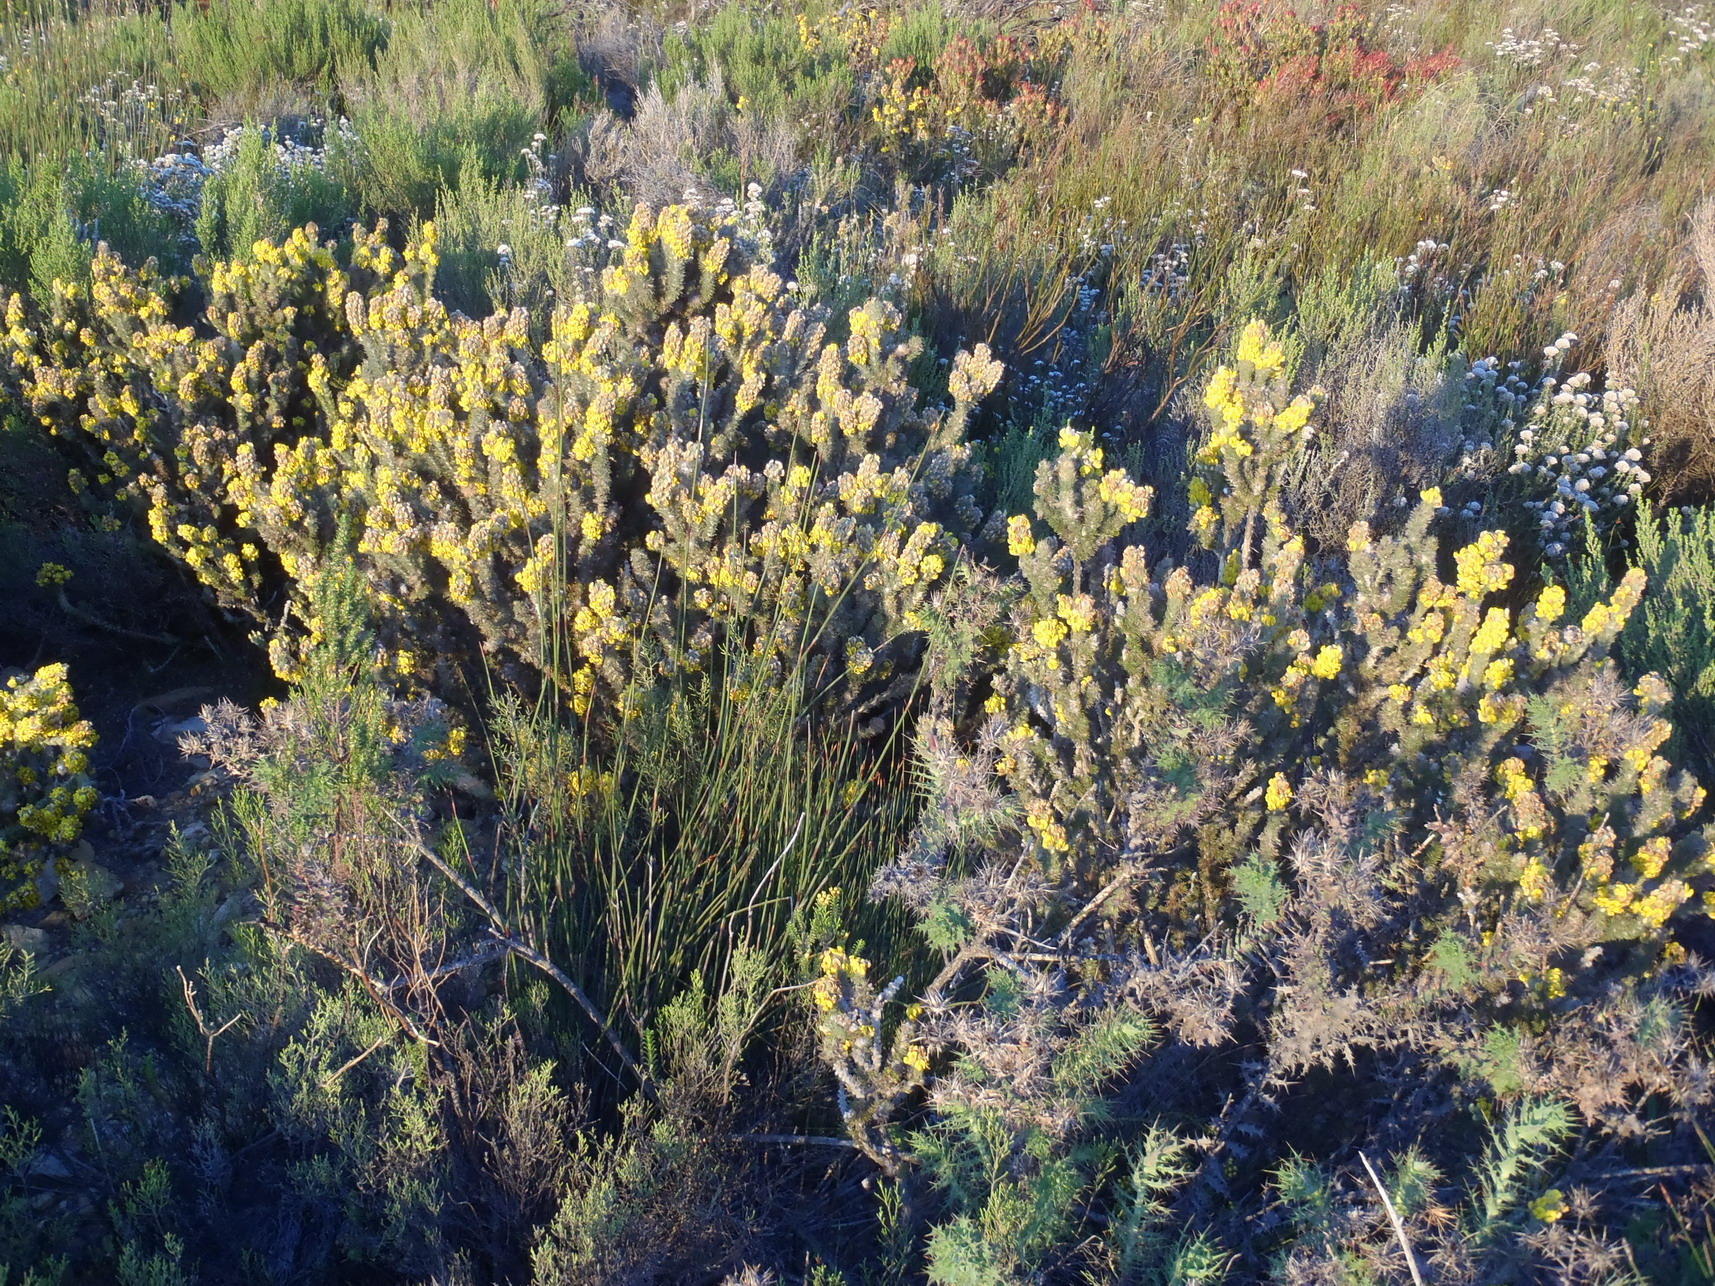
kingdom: Plantae
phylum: Tracheophyta
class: Magnoliopsida
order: Fabales
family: Fabaceae
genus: Aspalathus
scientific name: Aspalathus shawii
